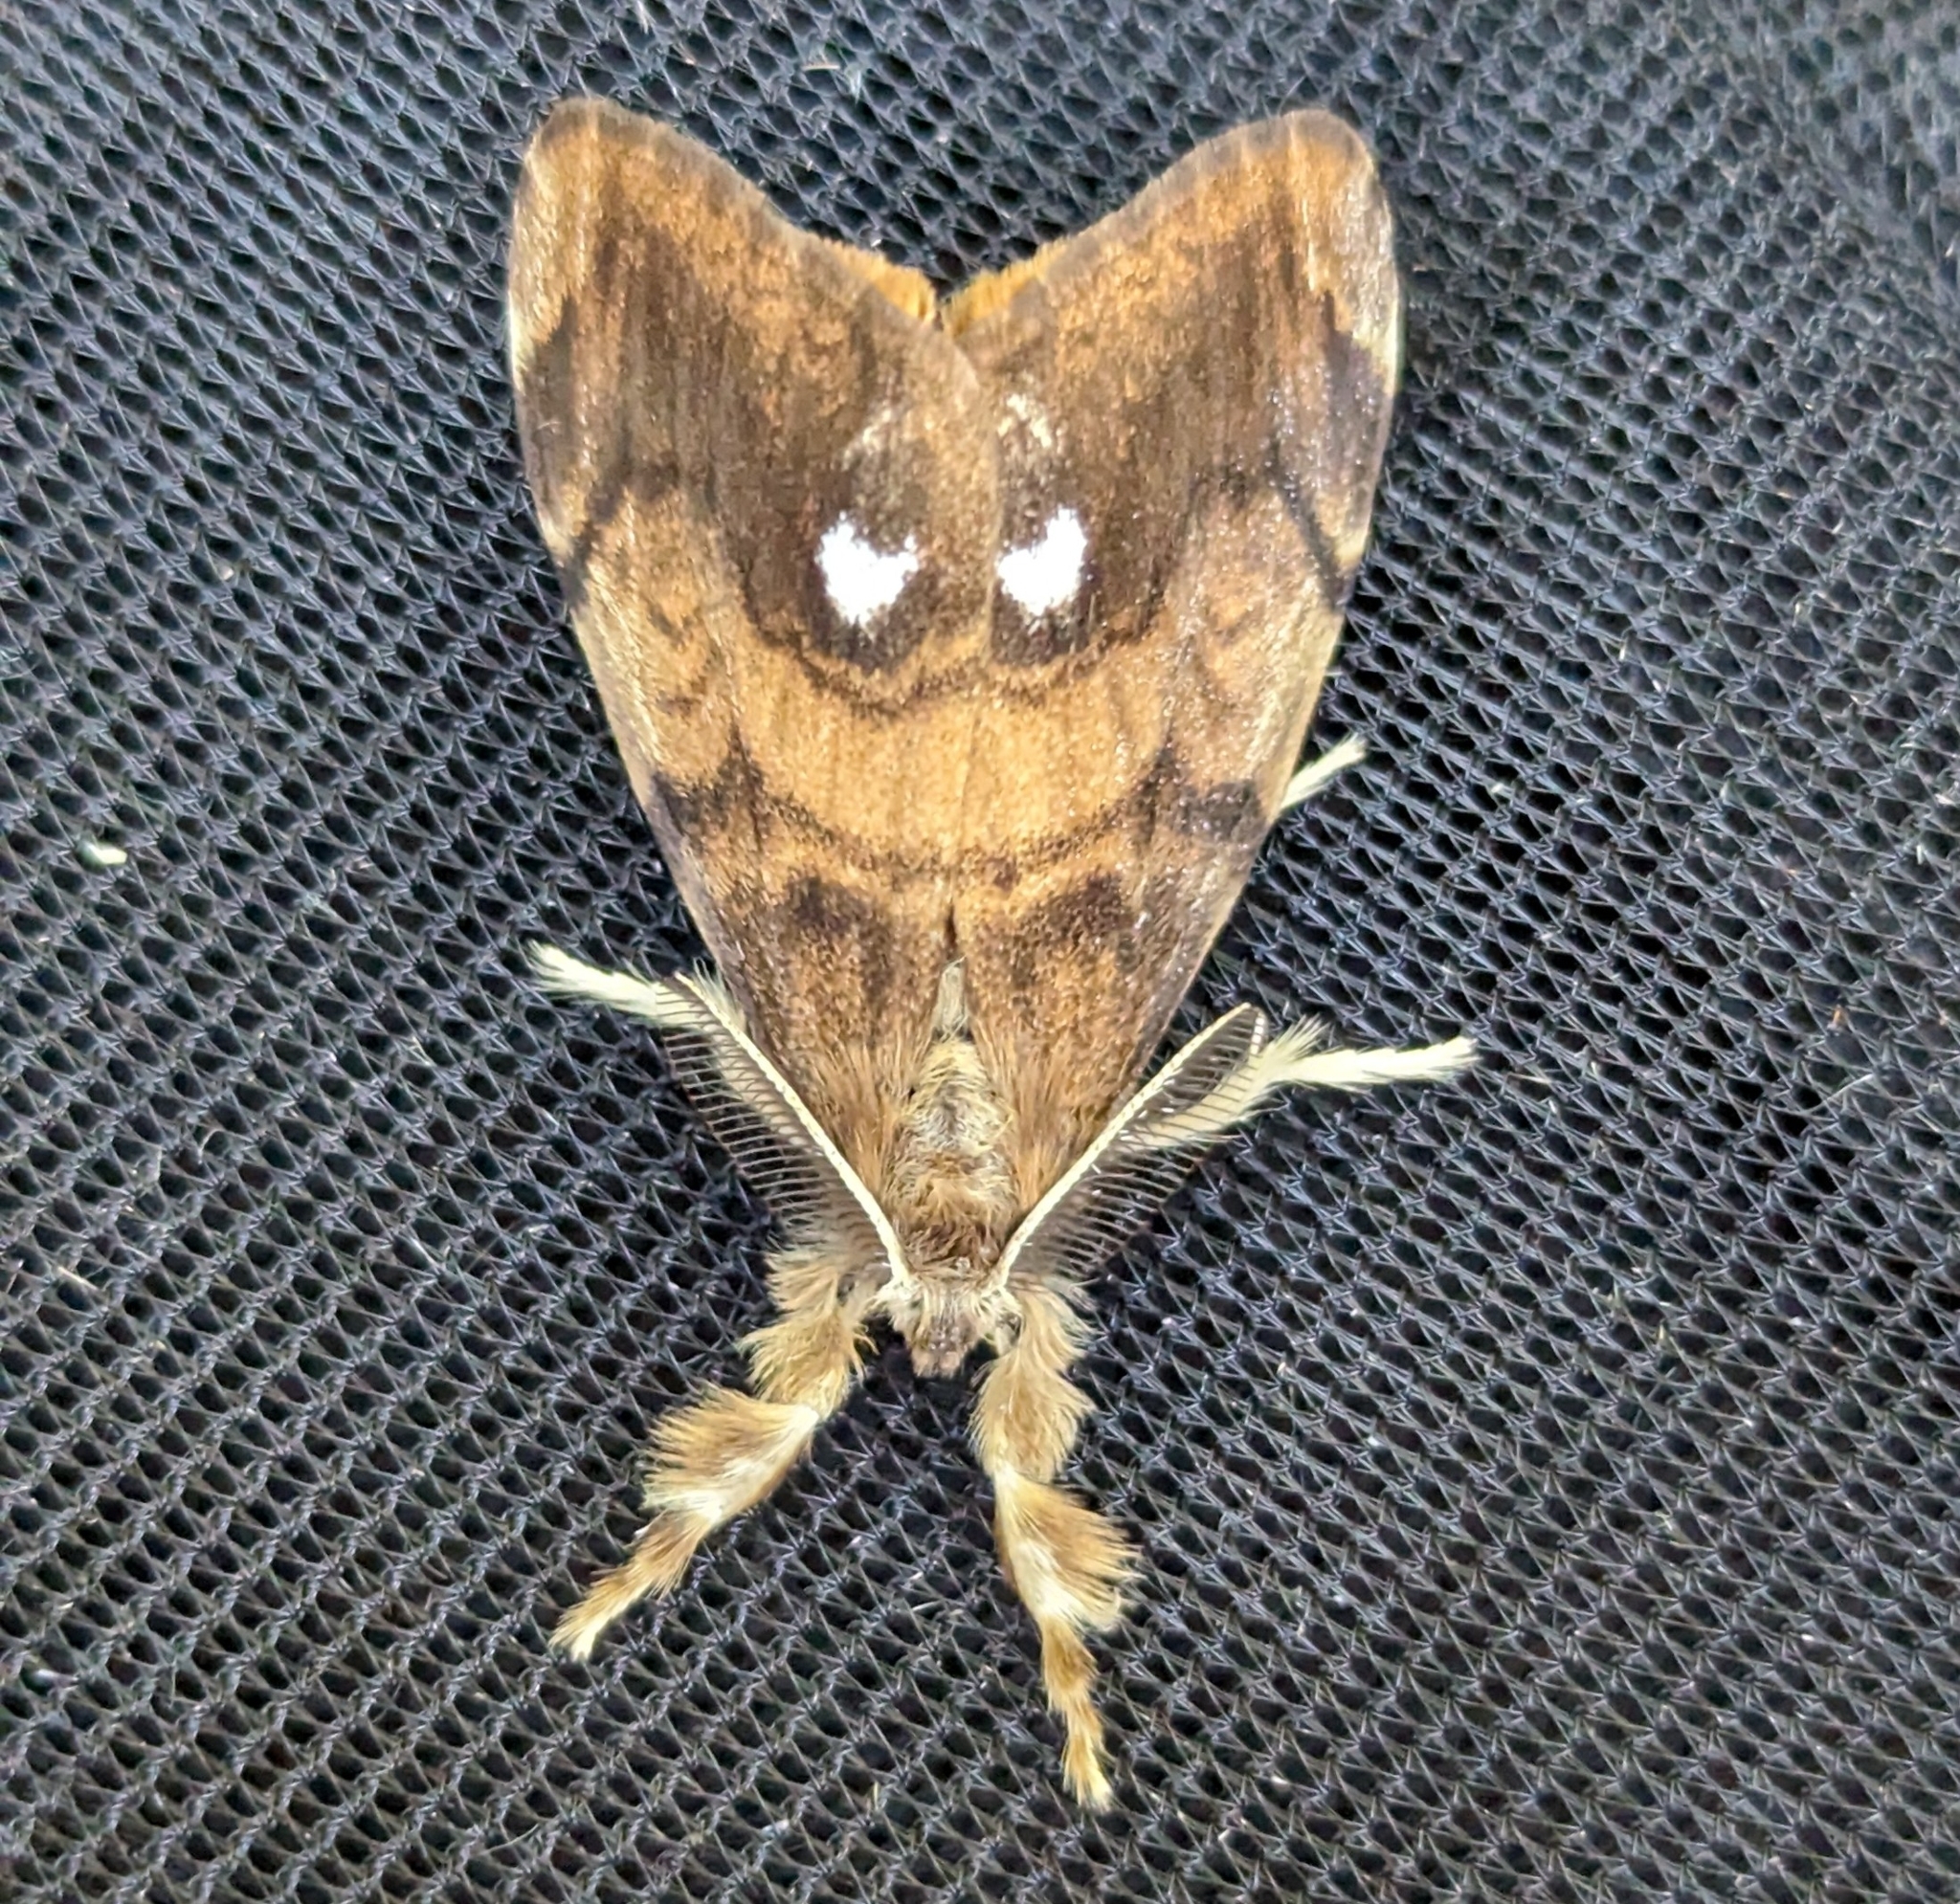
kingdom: Animalia
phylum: Arthropoda
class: Insecta
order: Lepidoptera
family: Erebidae
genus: Orgyia
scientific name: Orgyia antiqua
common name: Vapourer
